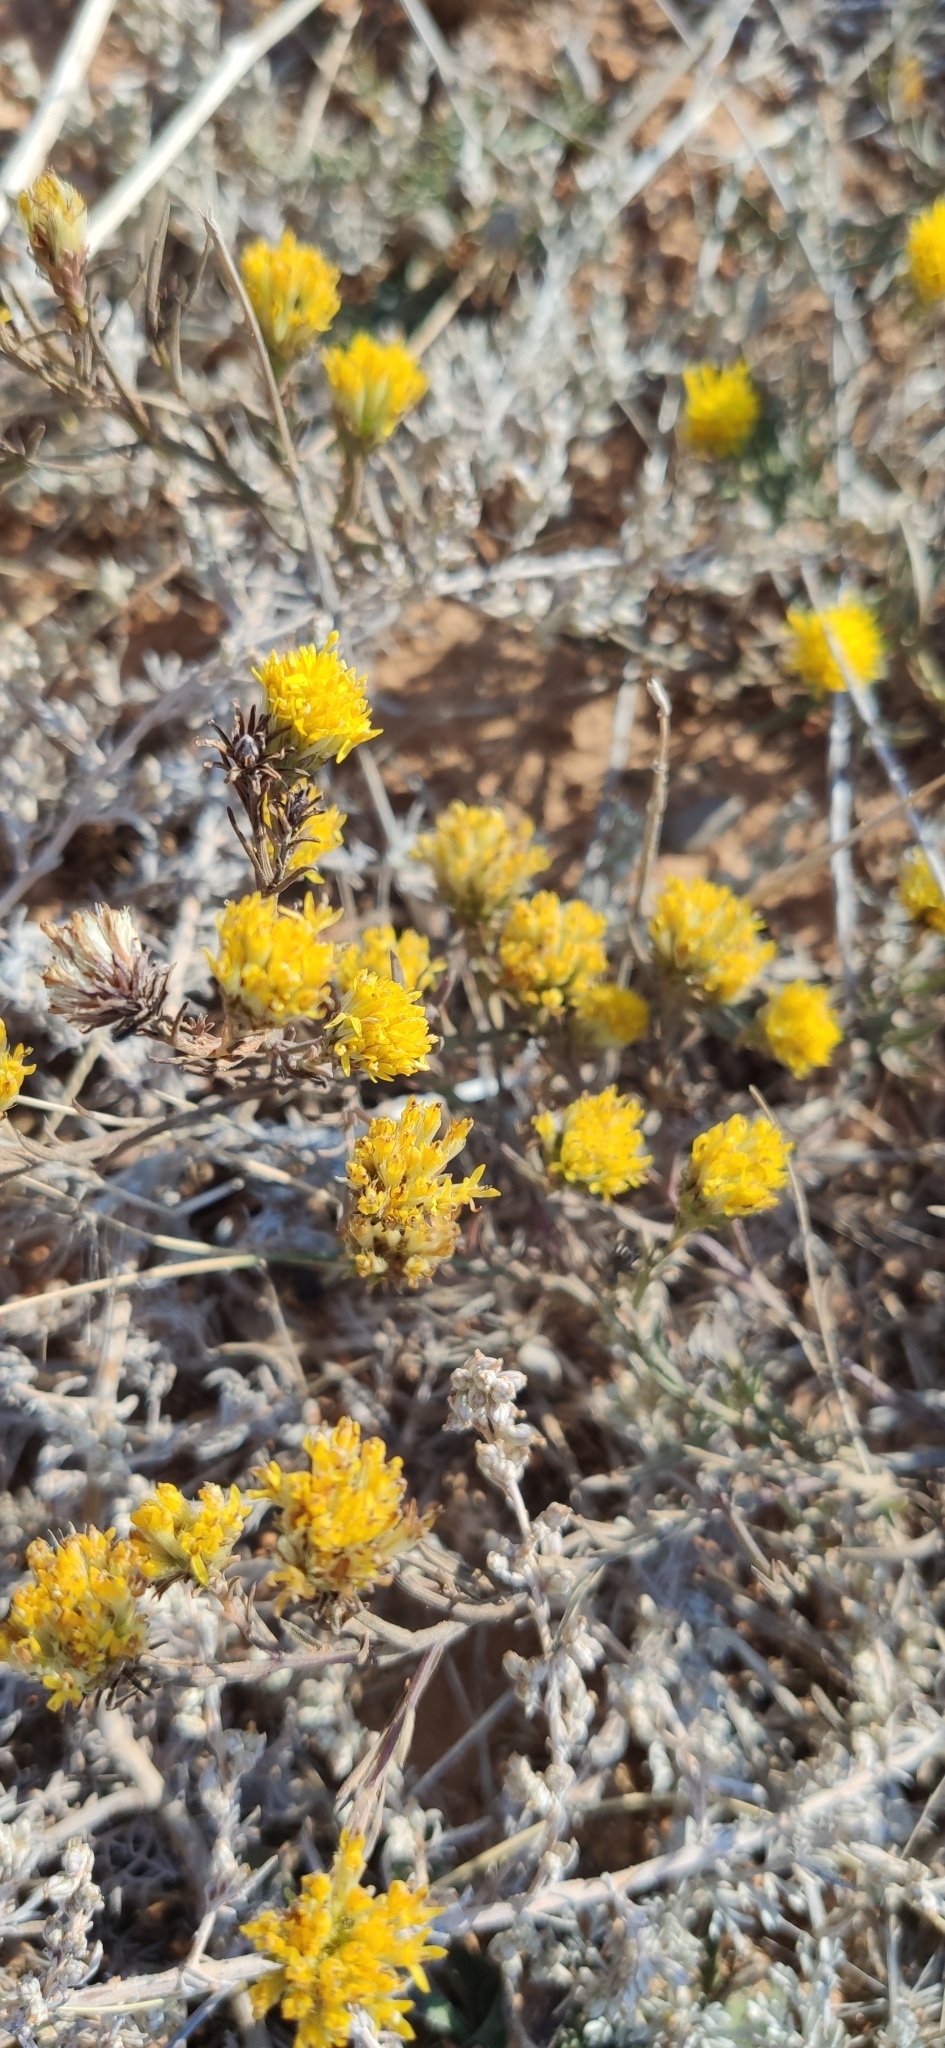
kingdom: Plantae
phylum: Tracheophyta
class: Magnoliopsida
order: Asterales
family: Asteraceae
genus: Galatella
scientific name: Galatella villosa
